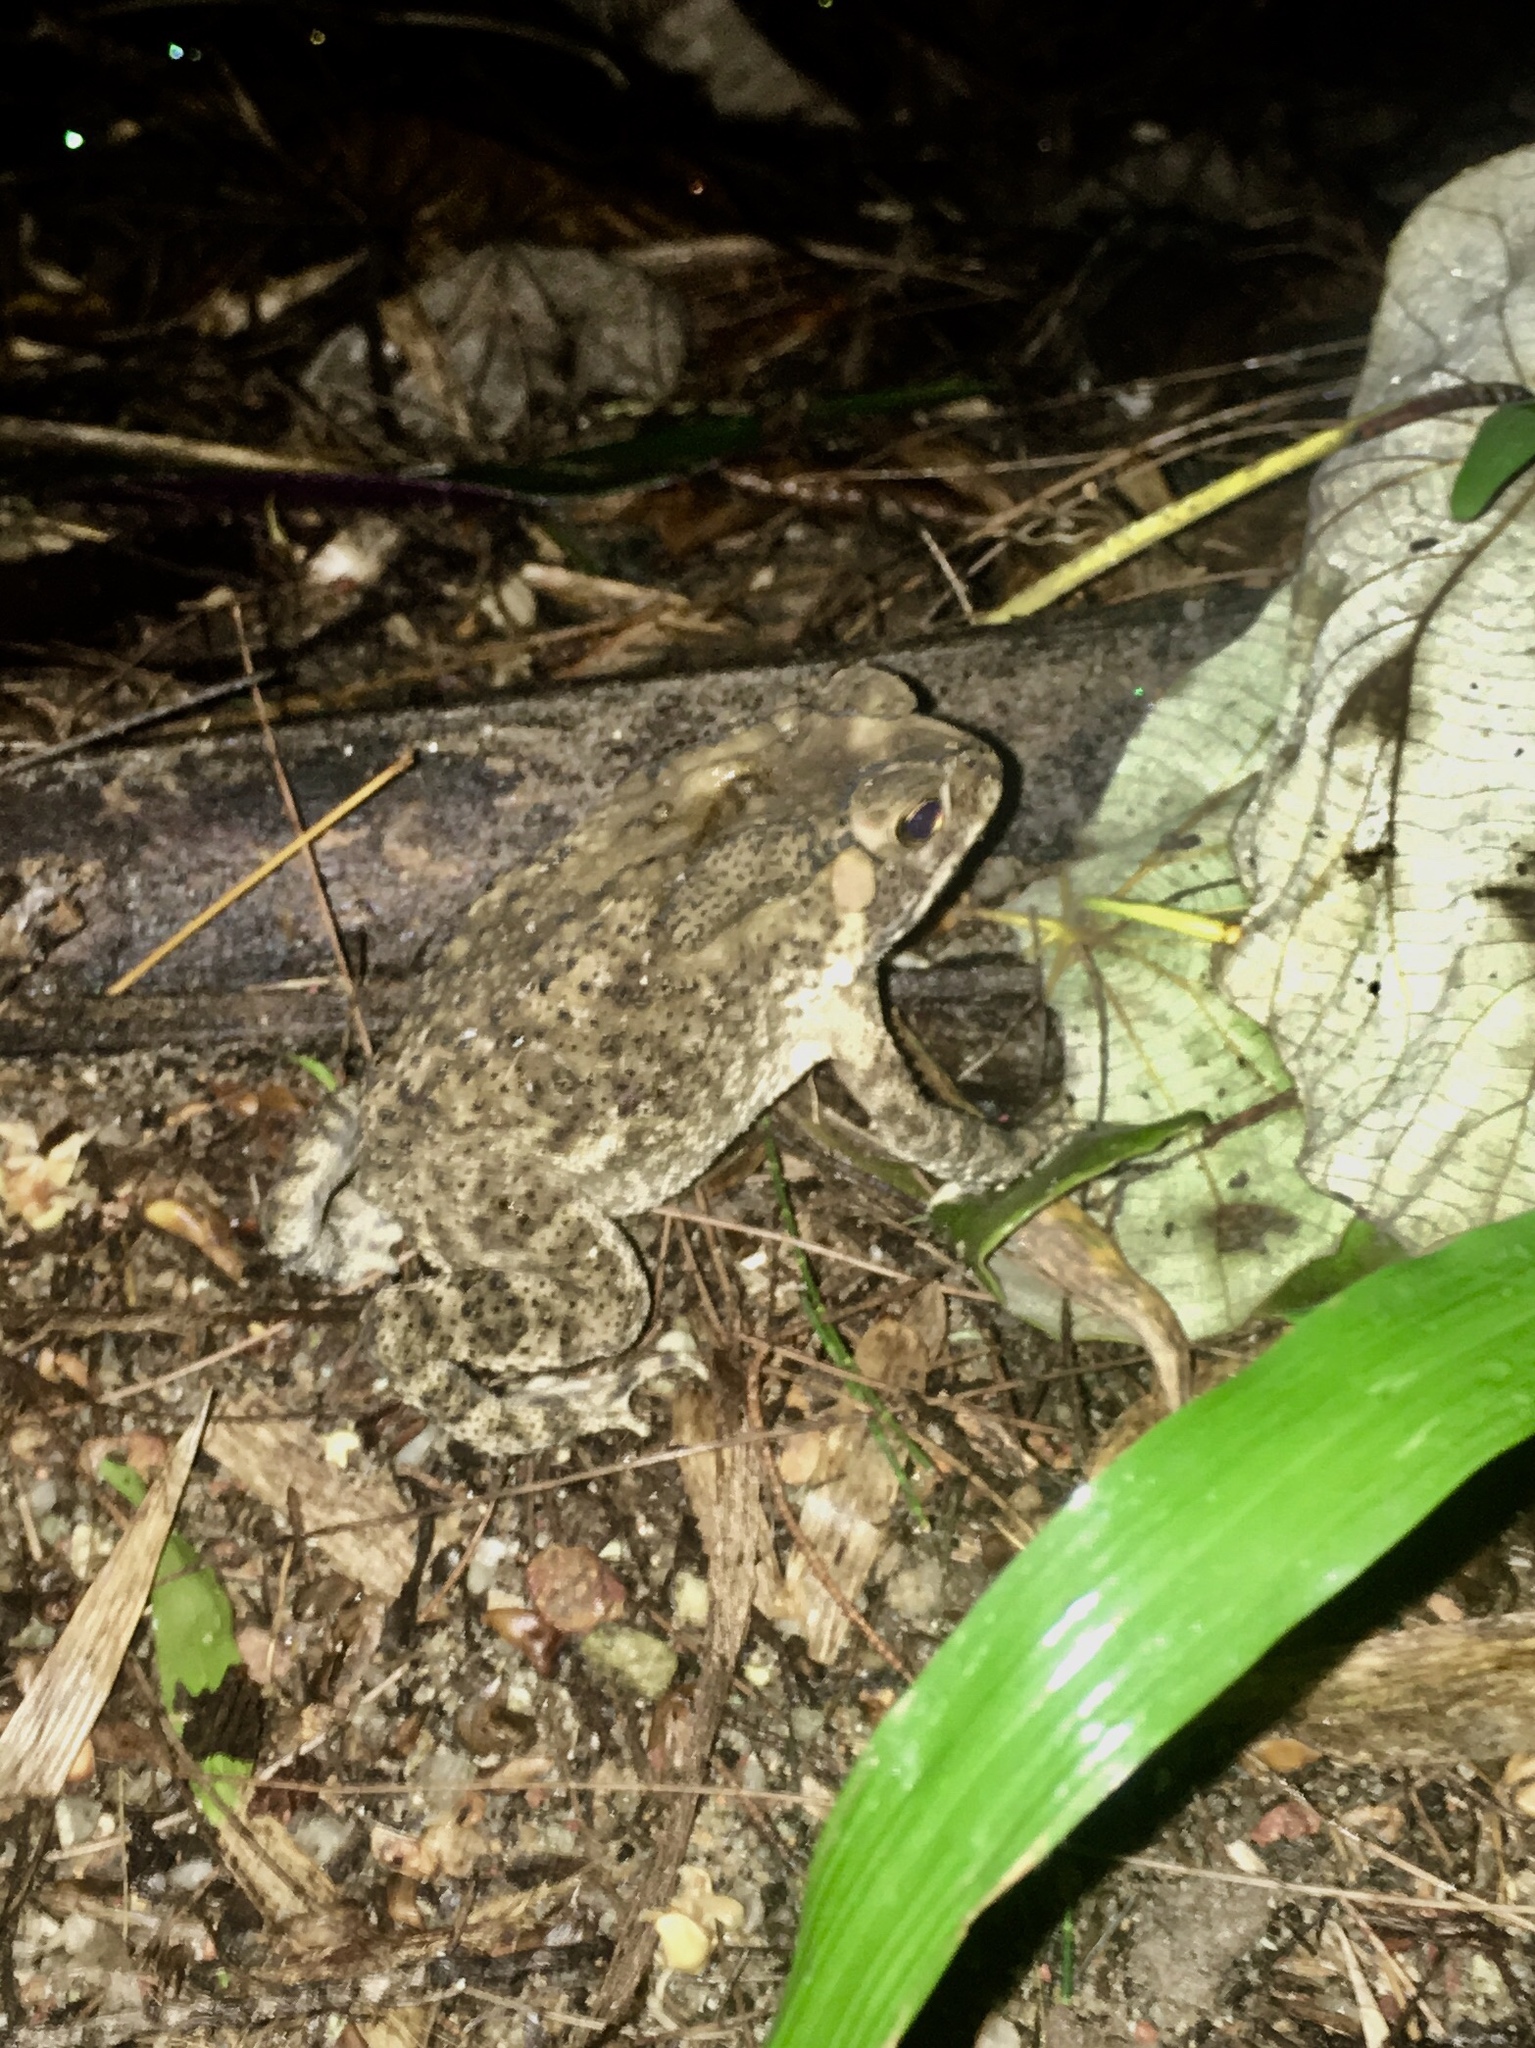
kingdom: Animalia
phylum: Chordata
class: Amphibia
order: Anura
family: Bufonidae
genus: Duttaphrynus
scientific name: Duttaphrynus melanostictus
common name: Common sunda toad
